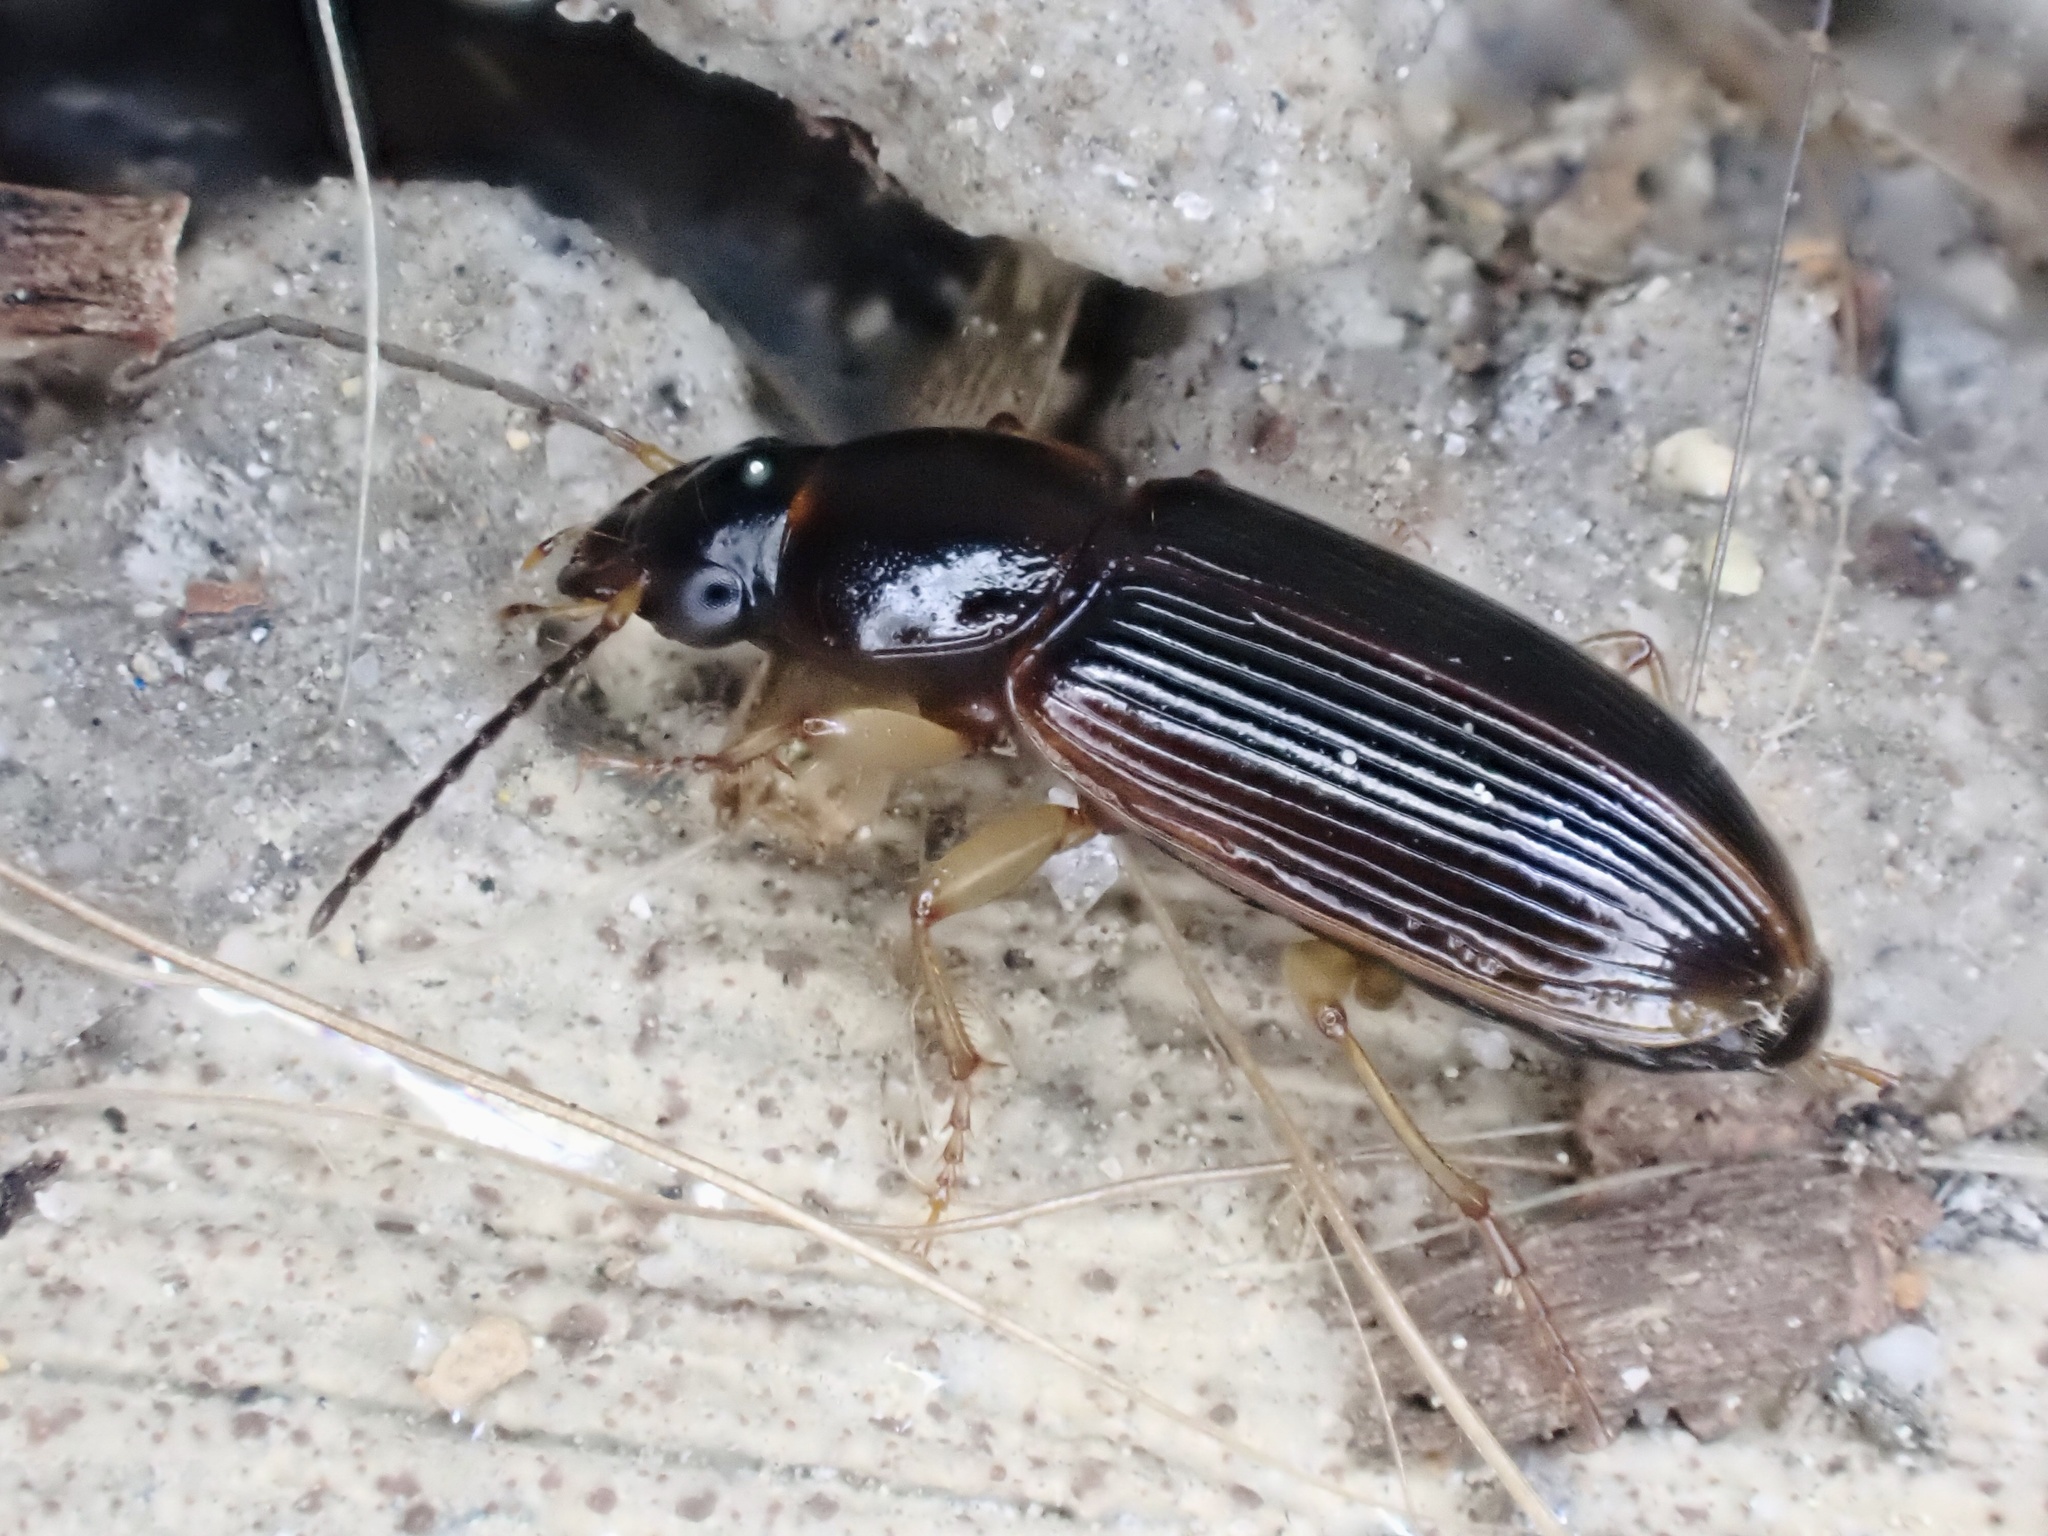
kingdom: Animalia
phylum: Arthropoda
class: Insecta
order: Coleoptera
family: Carabidae
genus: Stenolophus
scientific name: Stenolophus ochropezus
